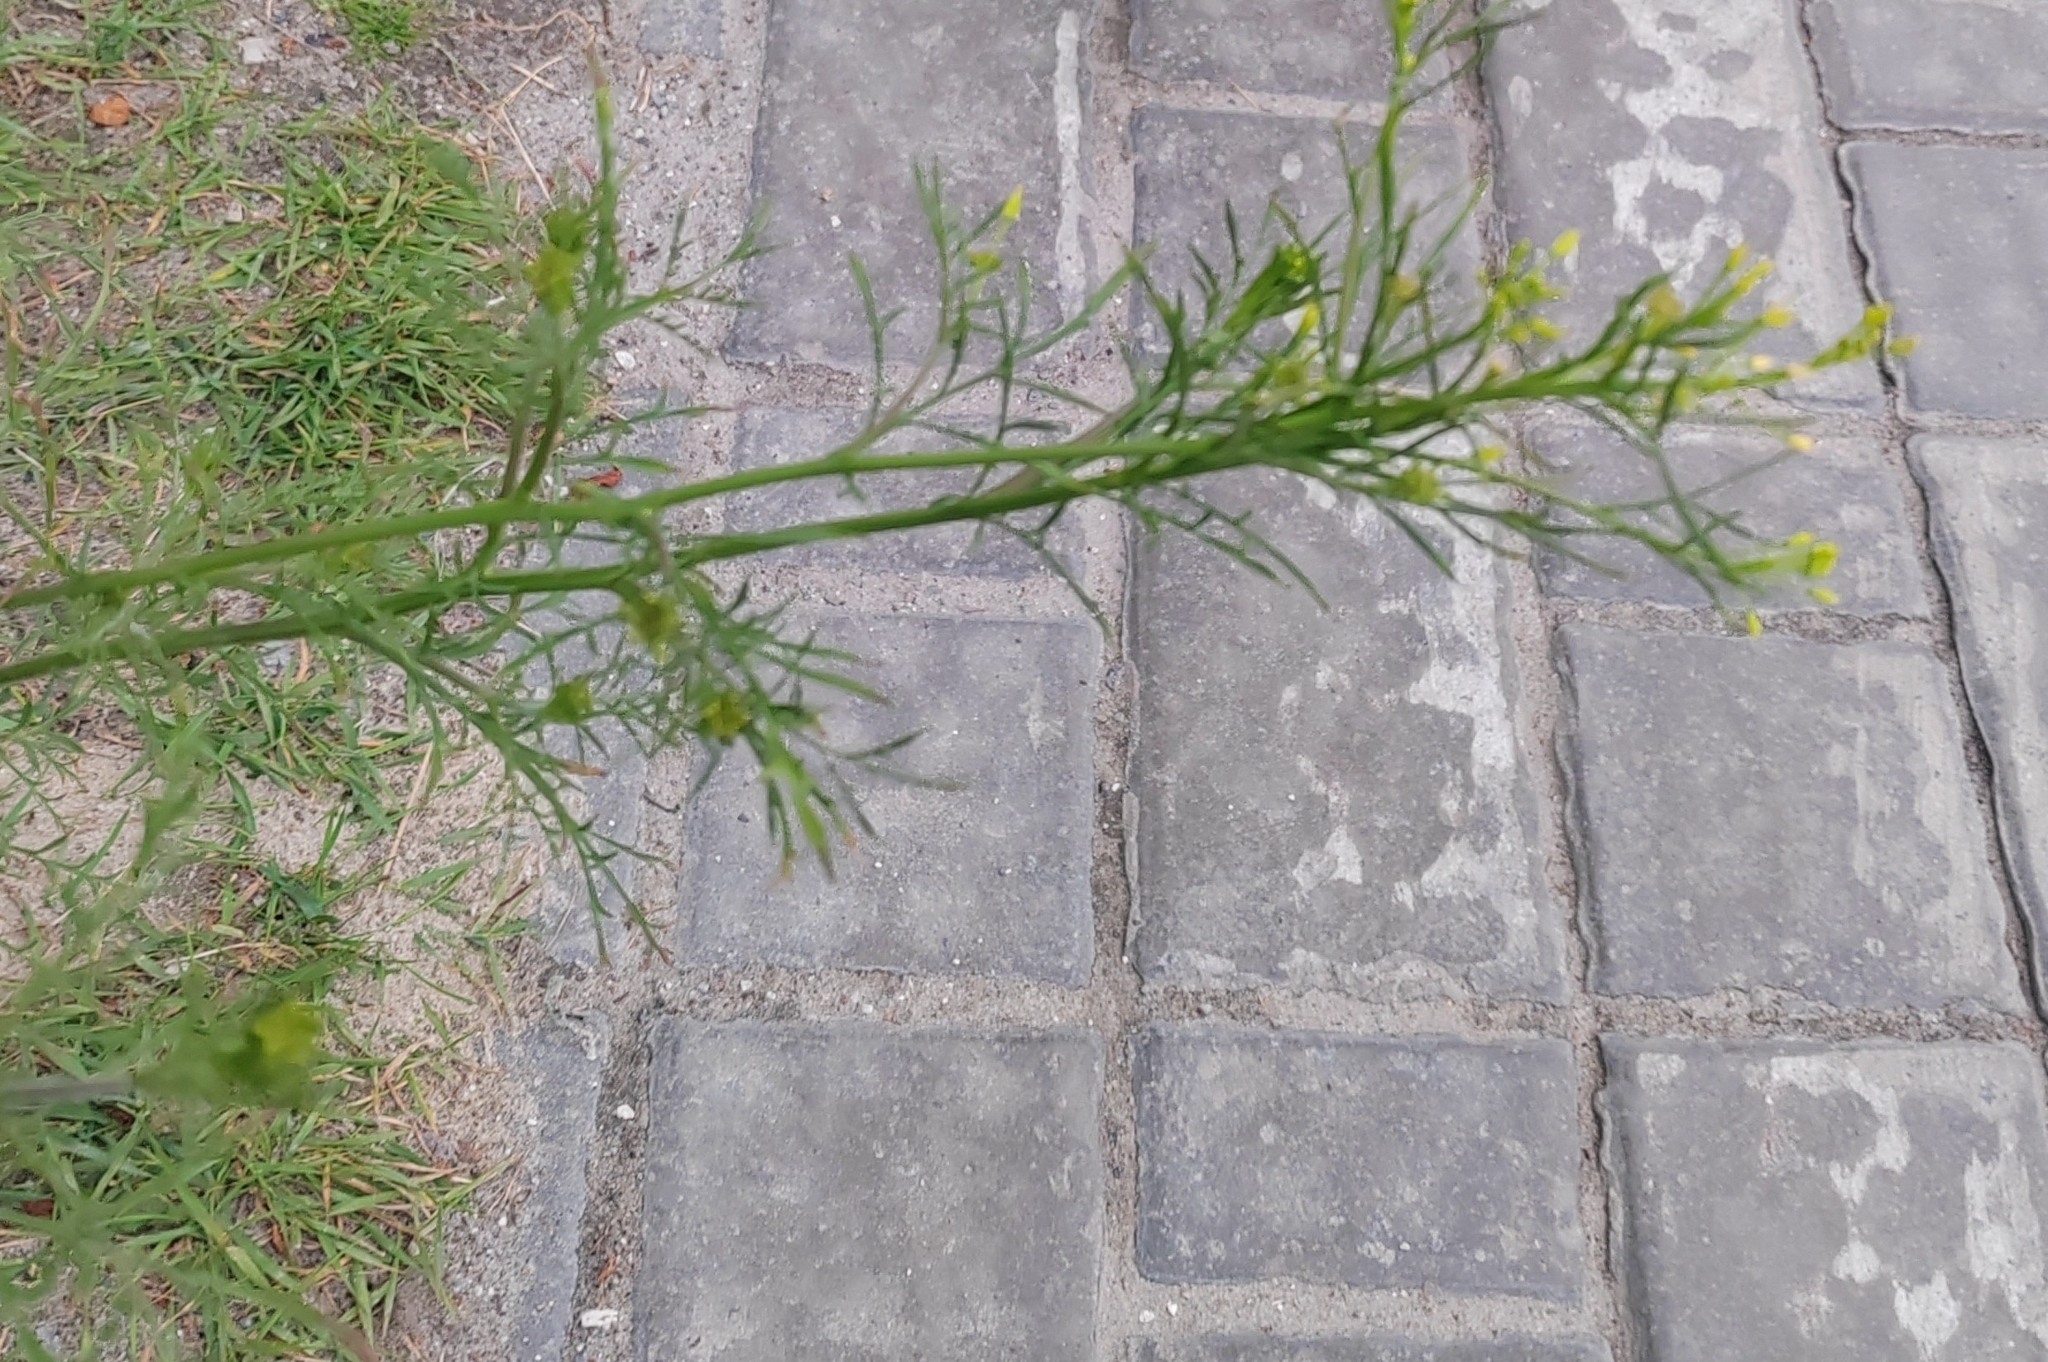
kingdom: Plantae
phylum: Tracheophyta
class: Magnoliopsida
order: Brassicales
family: Brassicaceae
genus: Descurainia
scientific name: Descurainia sophia
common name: Flixweed
